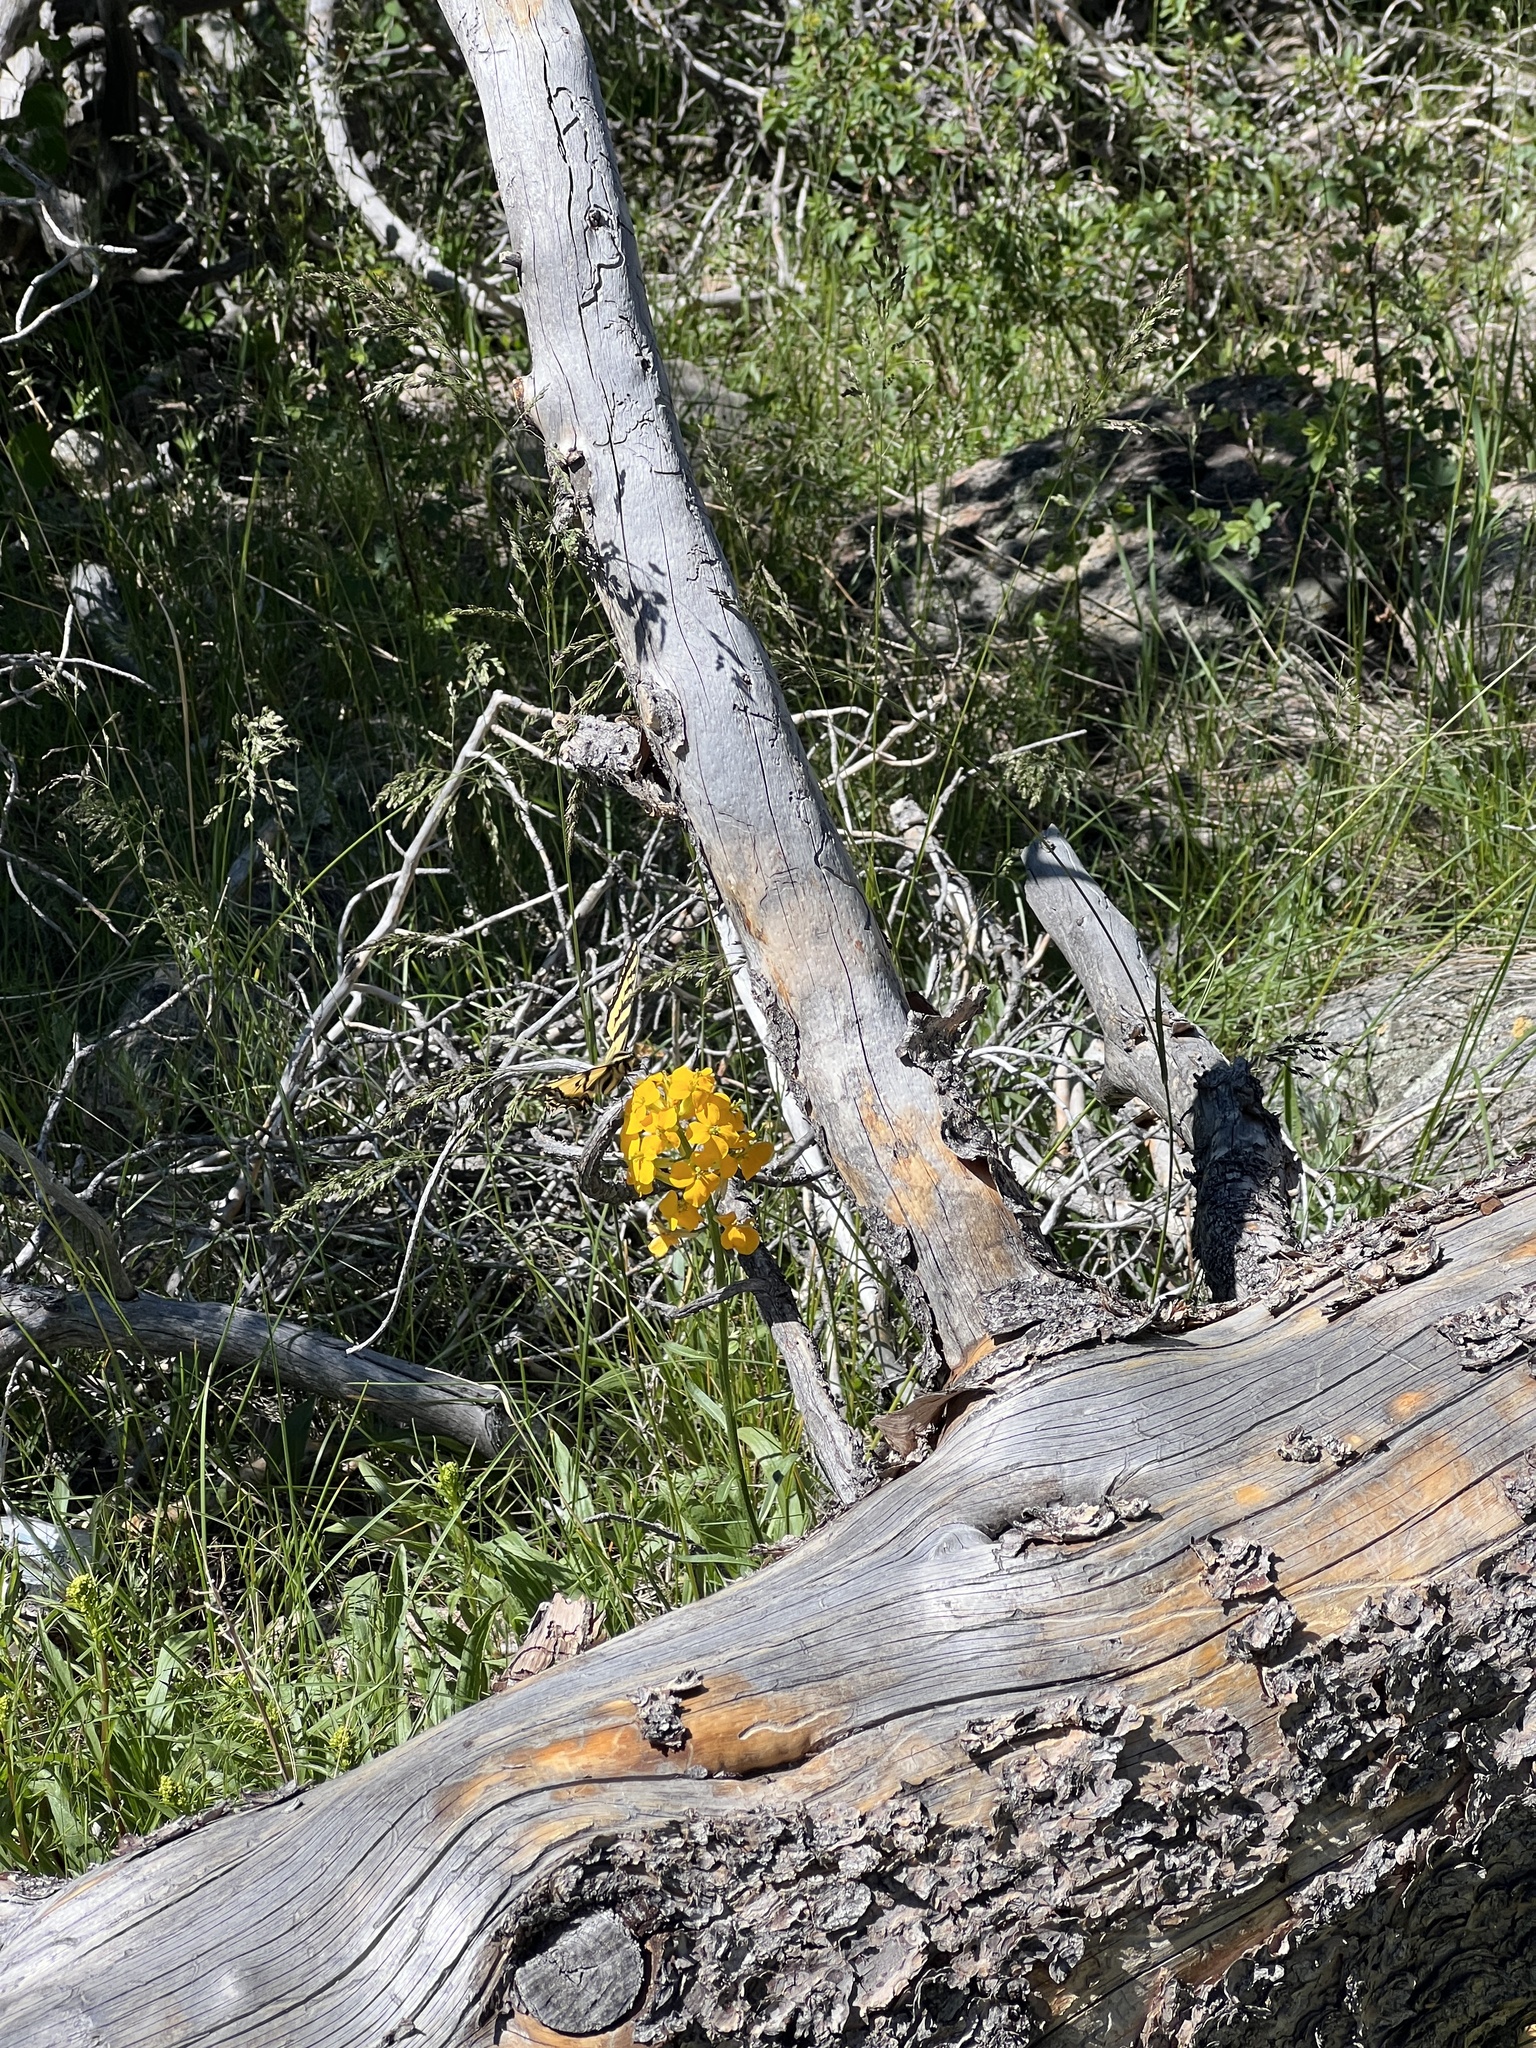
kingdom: Animalia
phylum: Arthropoda
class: Insecta
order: Lepidoptera
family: Papilionidae
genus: Papilio
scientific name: Papilio rutulus
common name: Western tiger swallowtail
